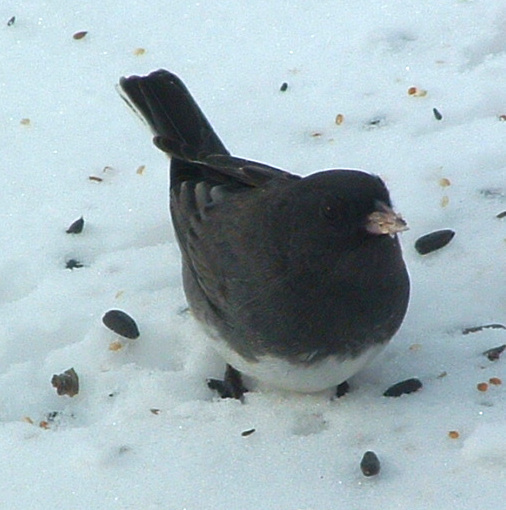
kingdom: Animalia
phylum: Chordata
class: Aves
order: Passeriformes
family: Passerellidae
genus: Junco
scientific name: Junco hyemalis
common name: Dark-eyed junco
